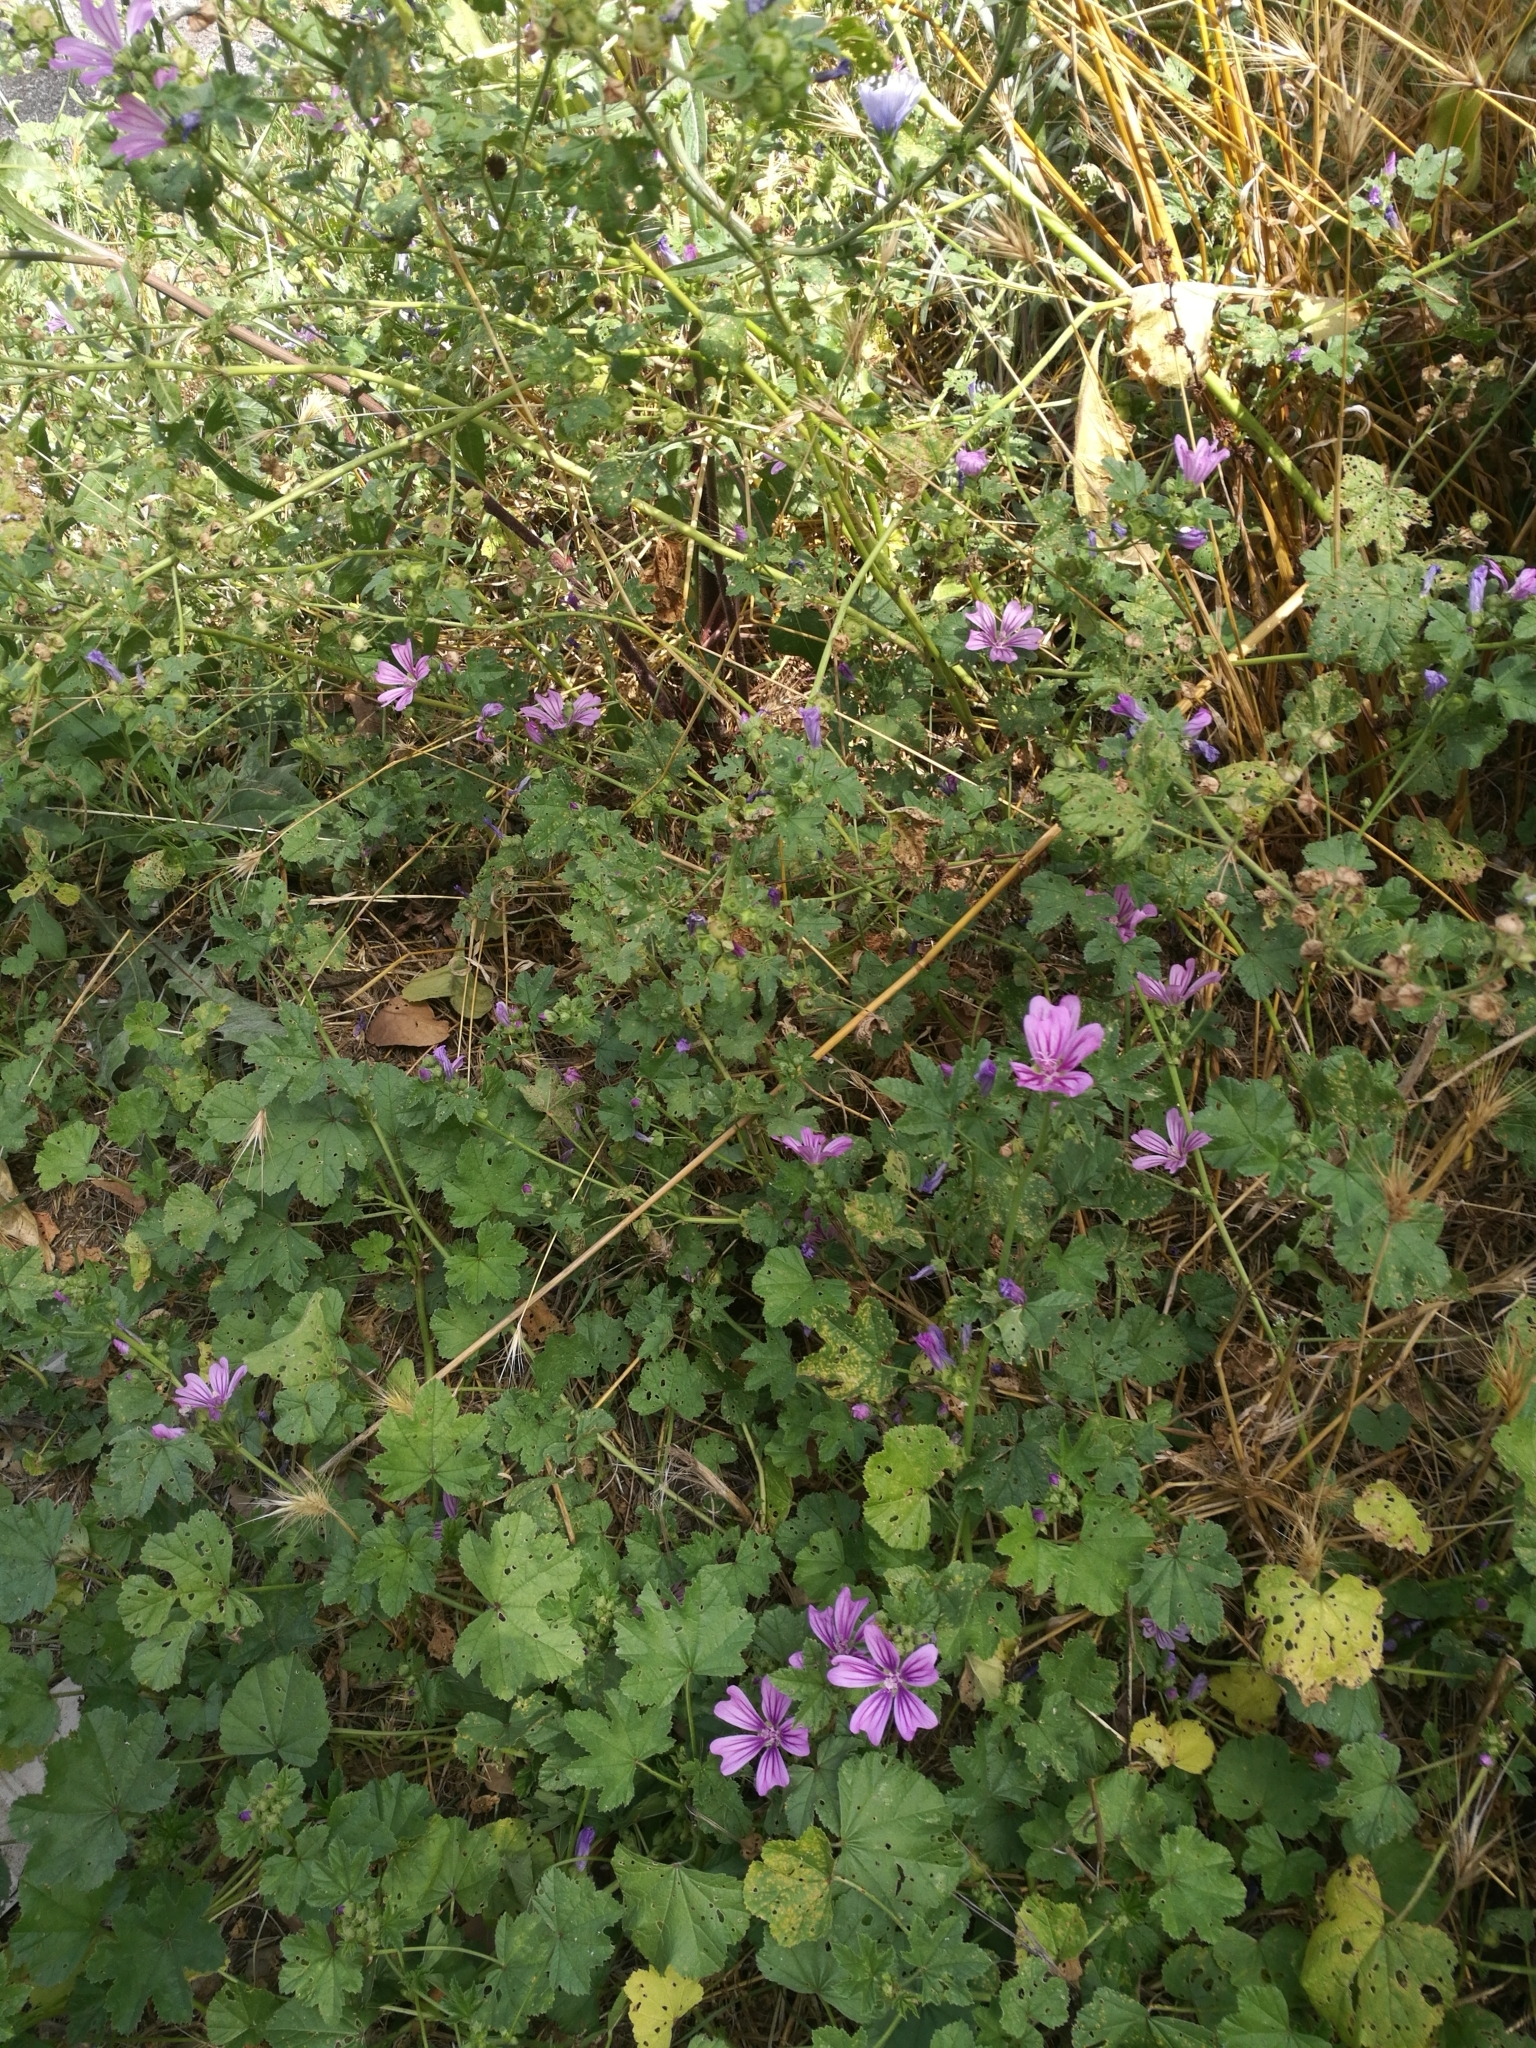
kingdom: Plantae
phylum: Tracheophyta
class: Magnoliopsida
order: Malvales
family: Malvaceae
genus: Malva
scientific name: Malva sylvestris
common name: Common mallow
